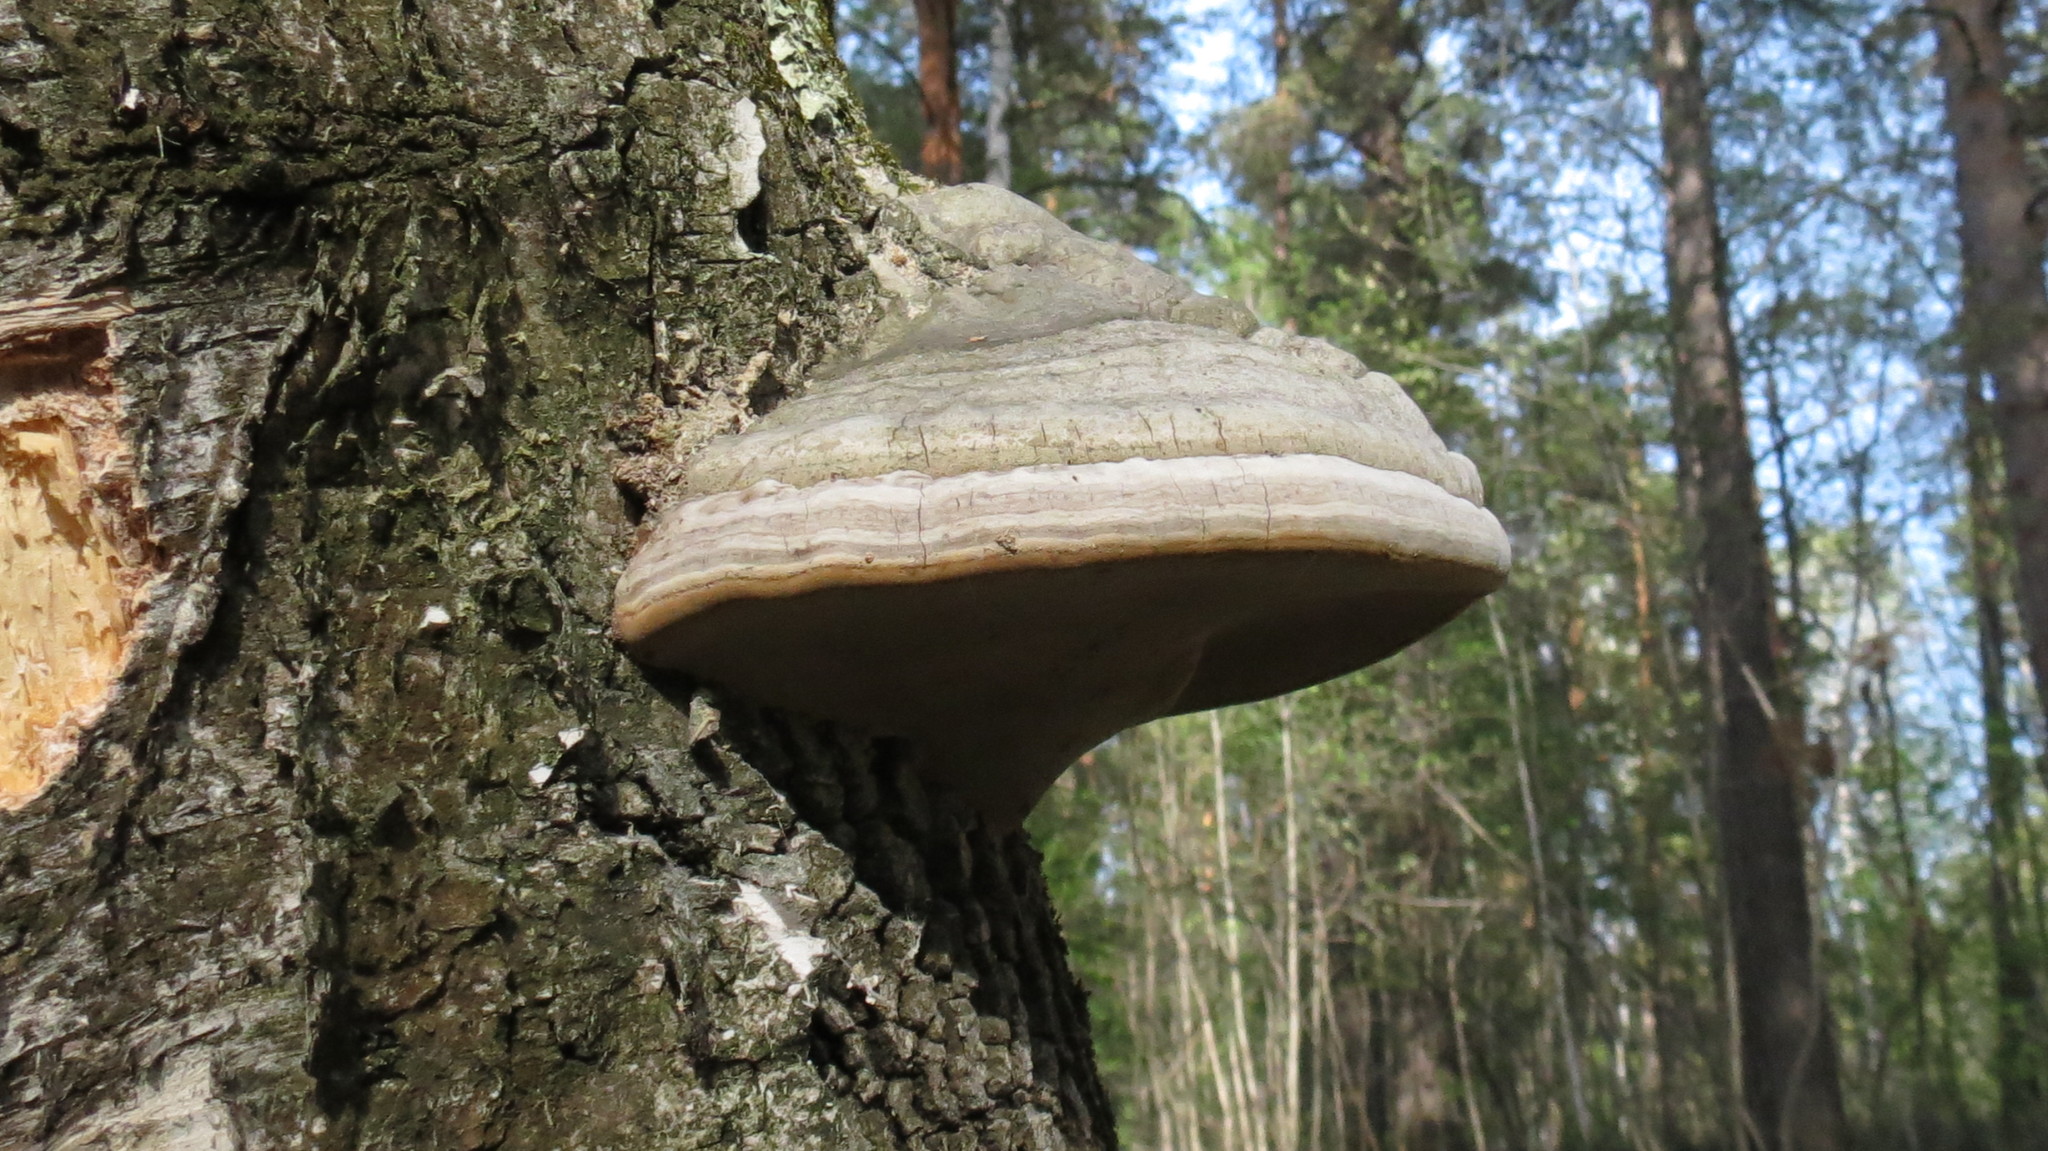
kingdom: Fungi
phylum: Basidiomycota
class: Agaricomycetes
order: Polyporales
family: Polyporaceae
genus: Fomes
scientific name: Fomes fomentarius
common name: Hoof fungus
